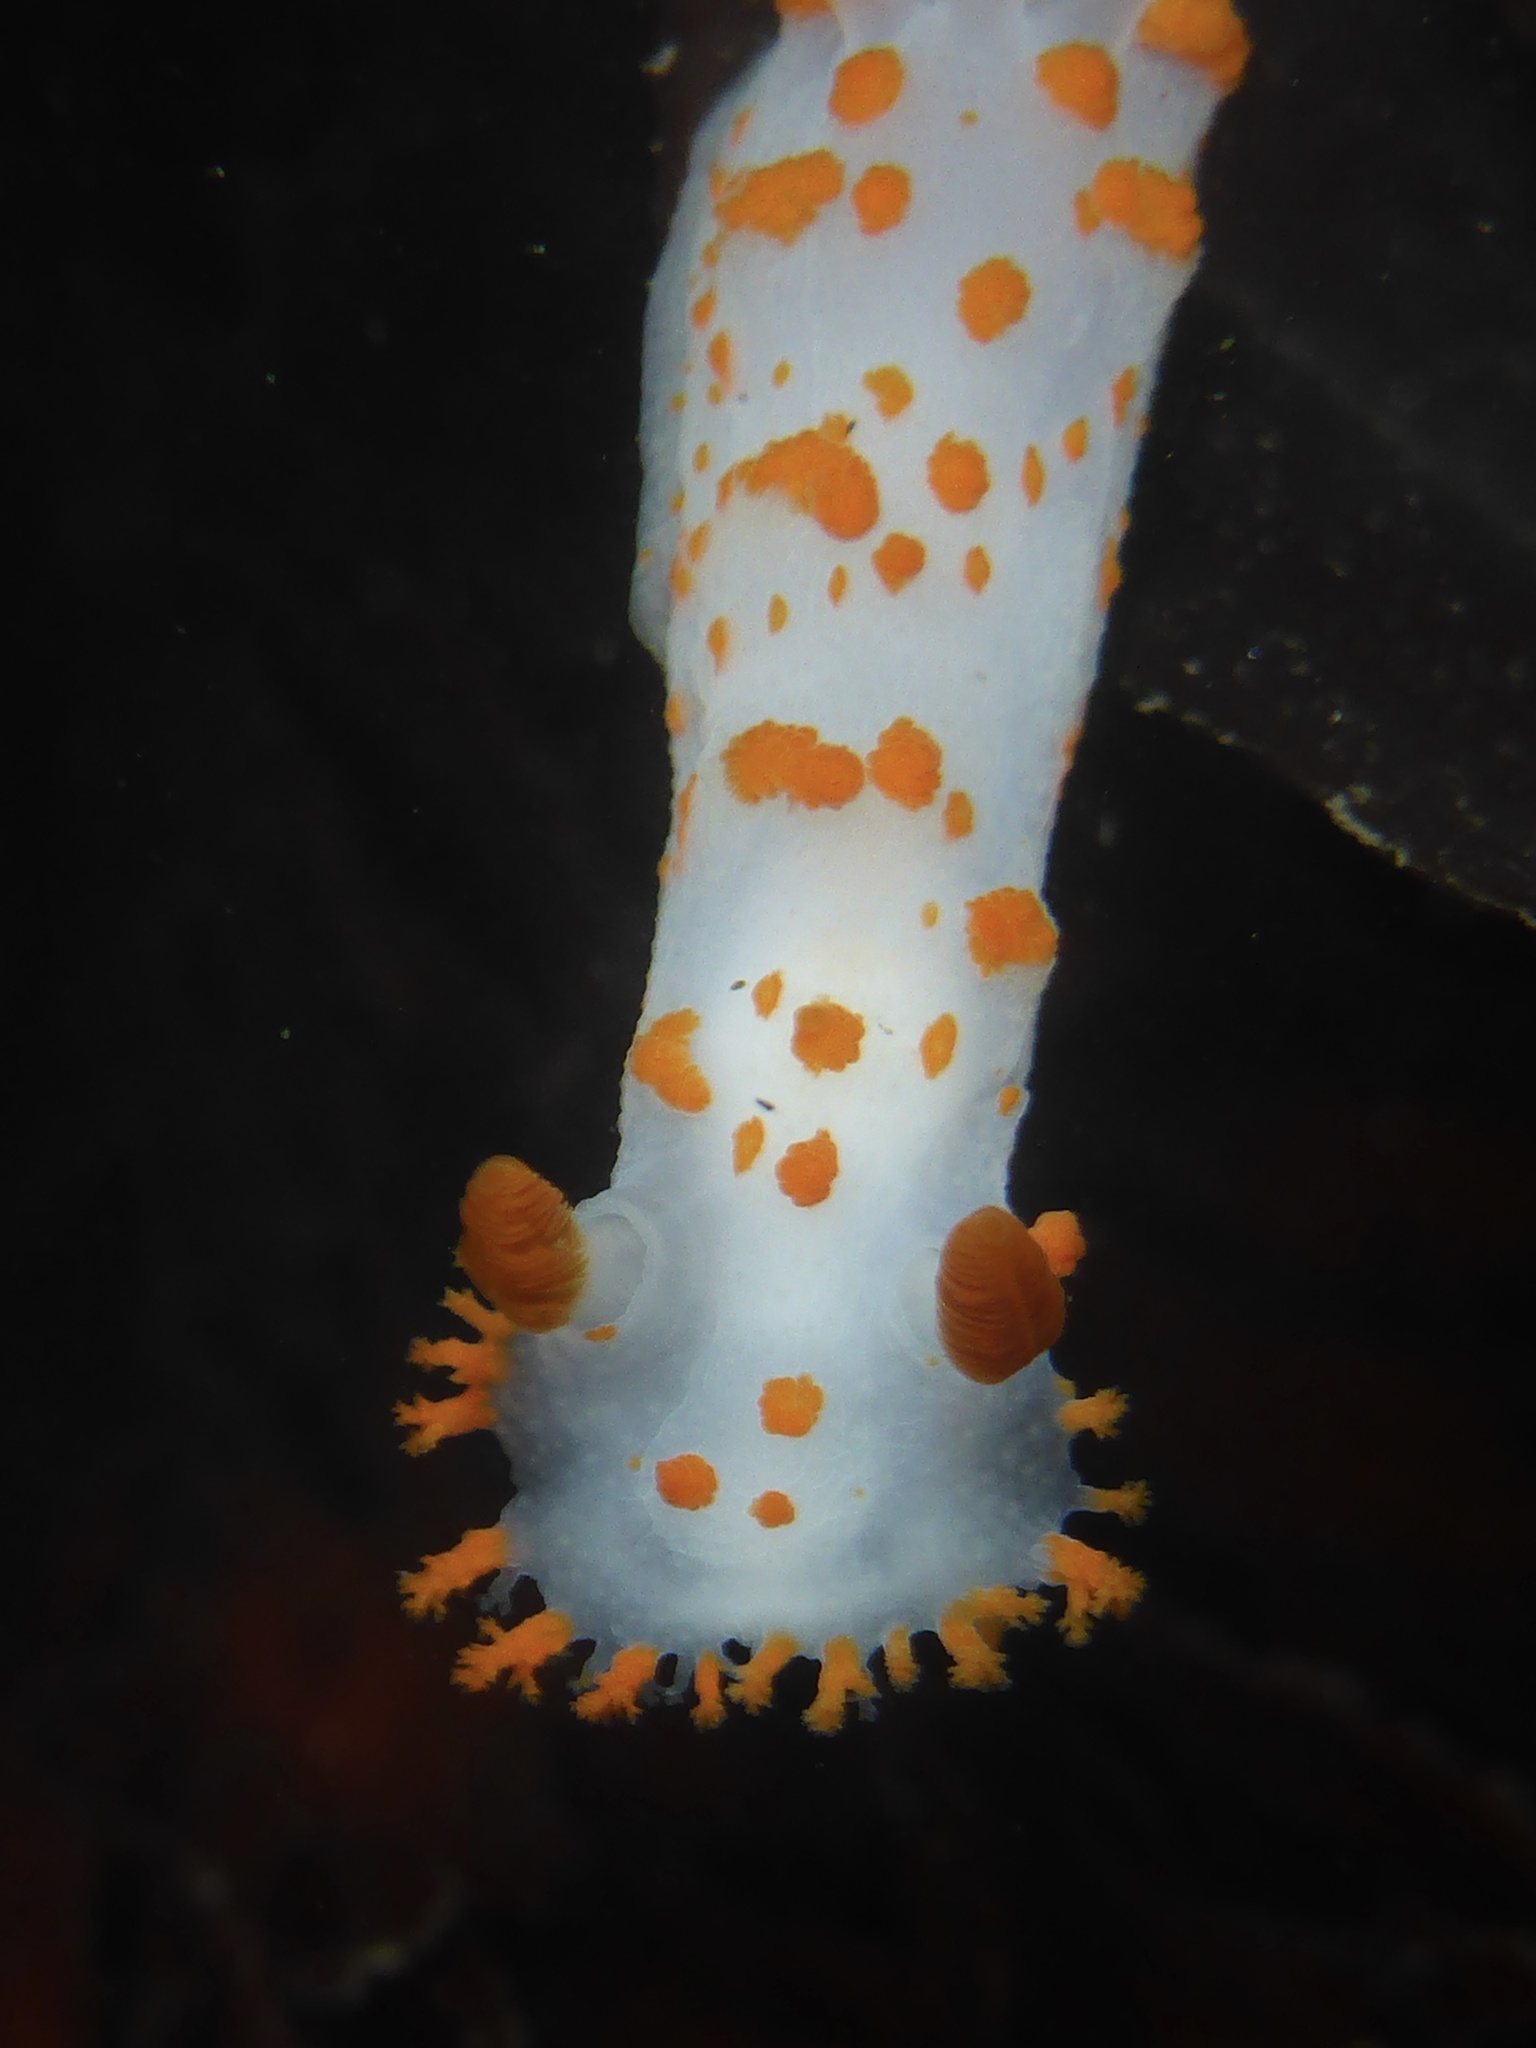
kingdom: Animalia
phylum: Mollusca
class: Gastropoda
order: Nudibranchia
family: Polyceridae
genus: Triopha
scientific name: Triopha catalinae
